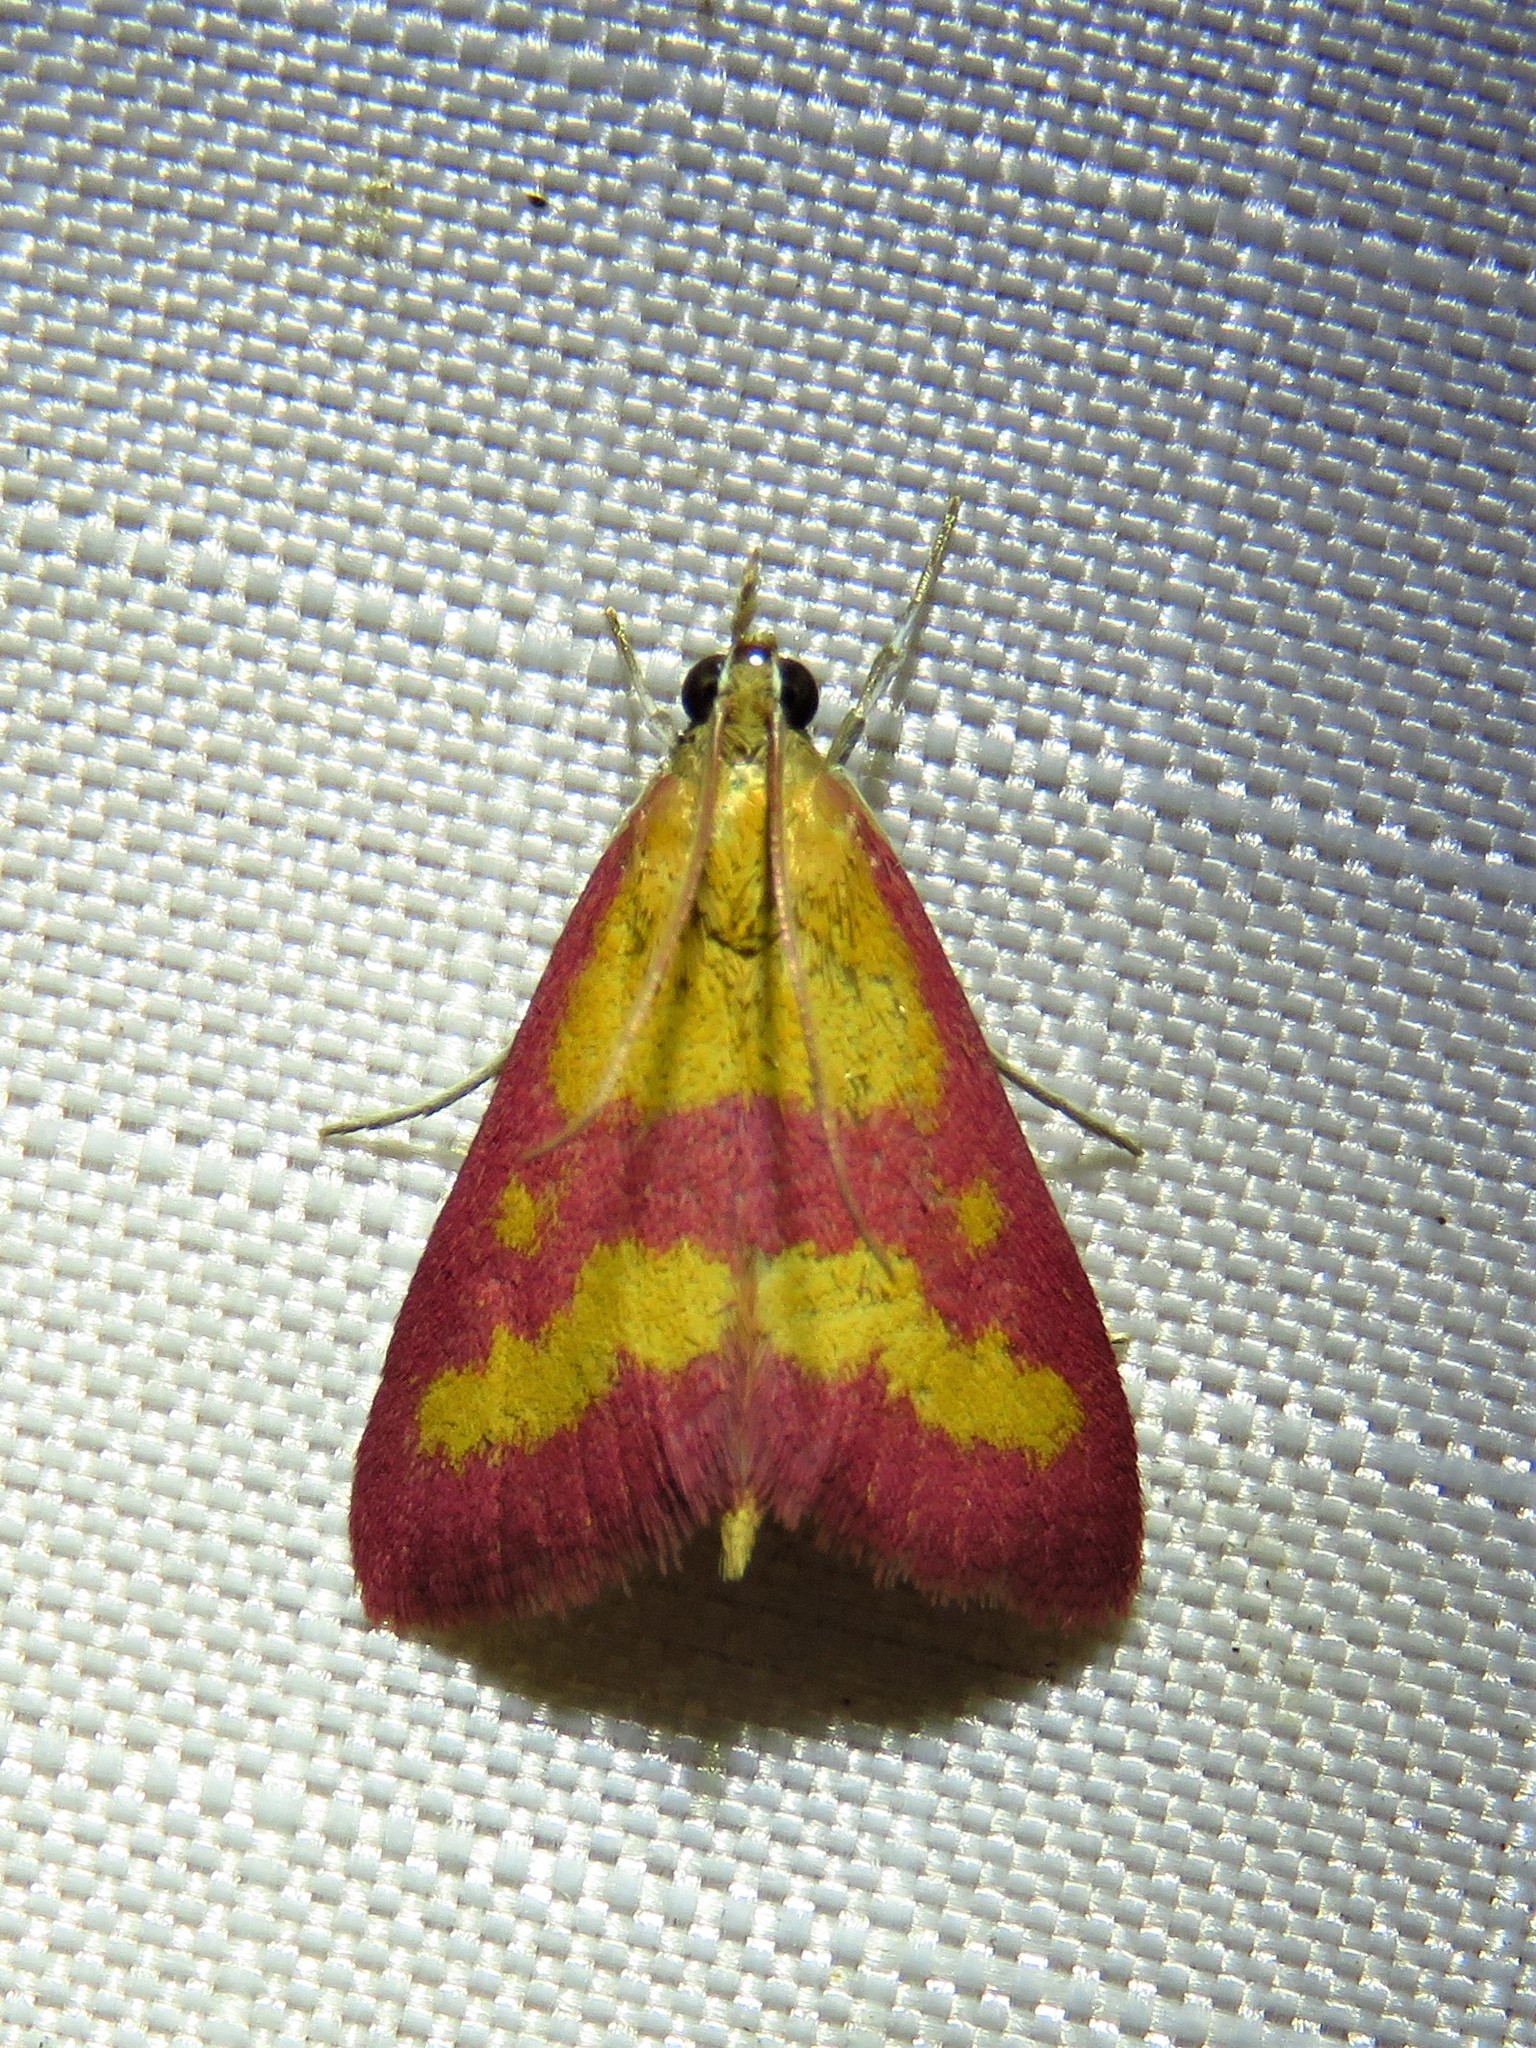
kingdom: Animalia
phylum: Arthropoda
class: Insecta
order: Lepidoptera
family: Crambidae
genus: Pyrausta
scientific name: Pyrausta laticlavia
